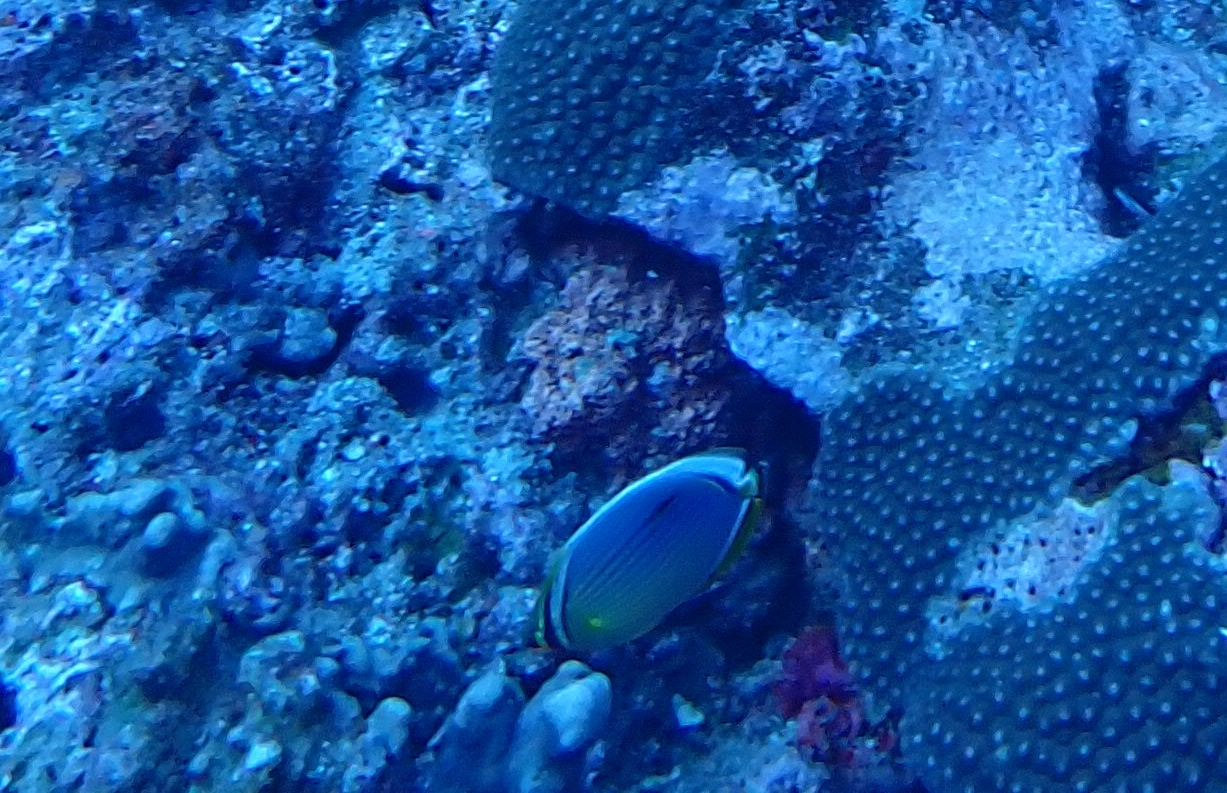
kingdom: Animalia
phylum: Chordata
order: Perciformes
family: Chaetodontidae
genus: Chaetodon
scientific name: Chaetodon trifasciatus
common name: Redfin butterflyfish
